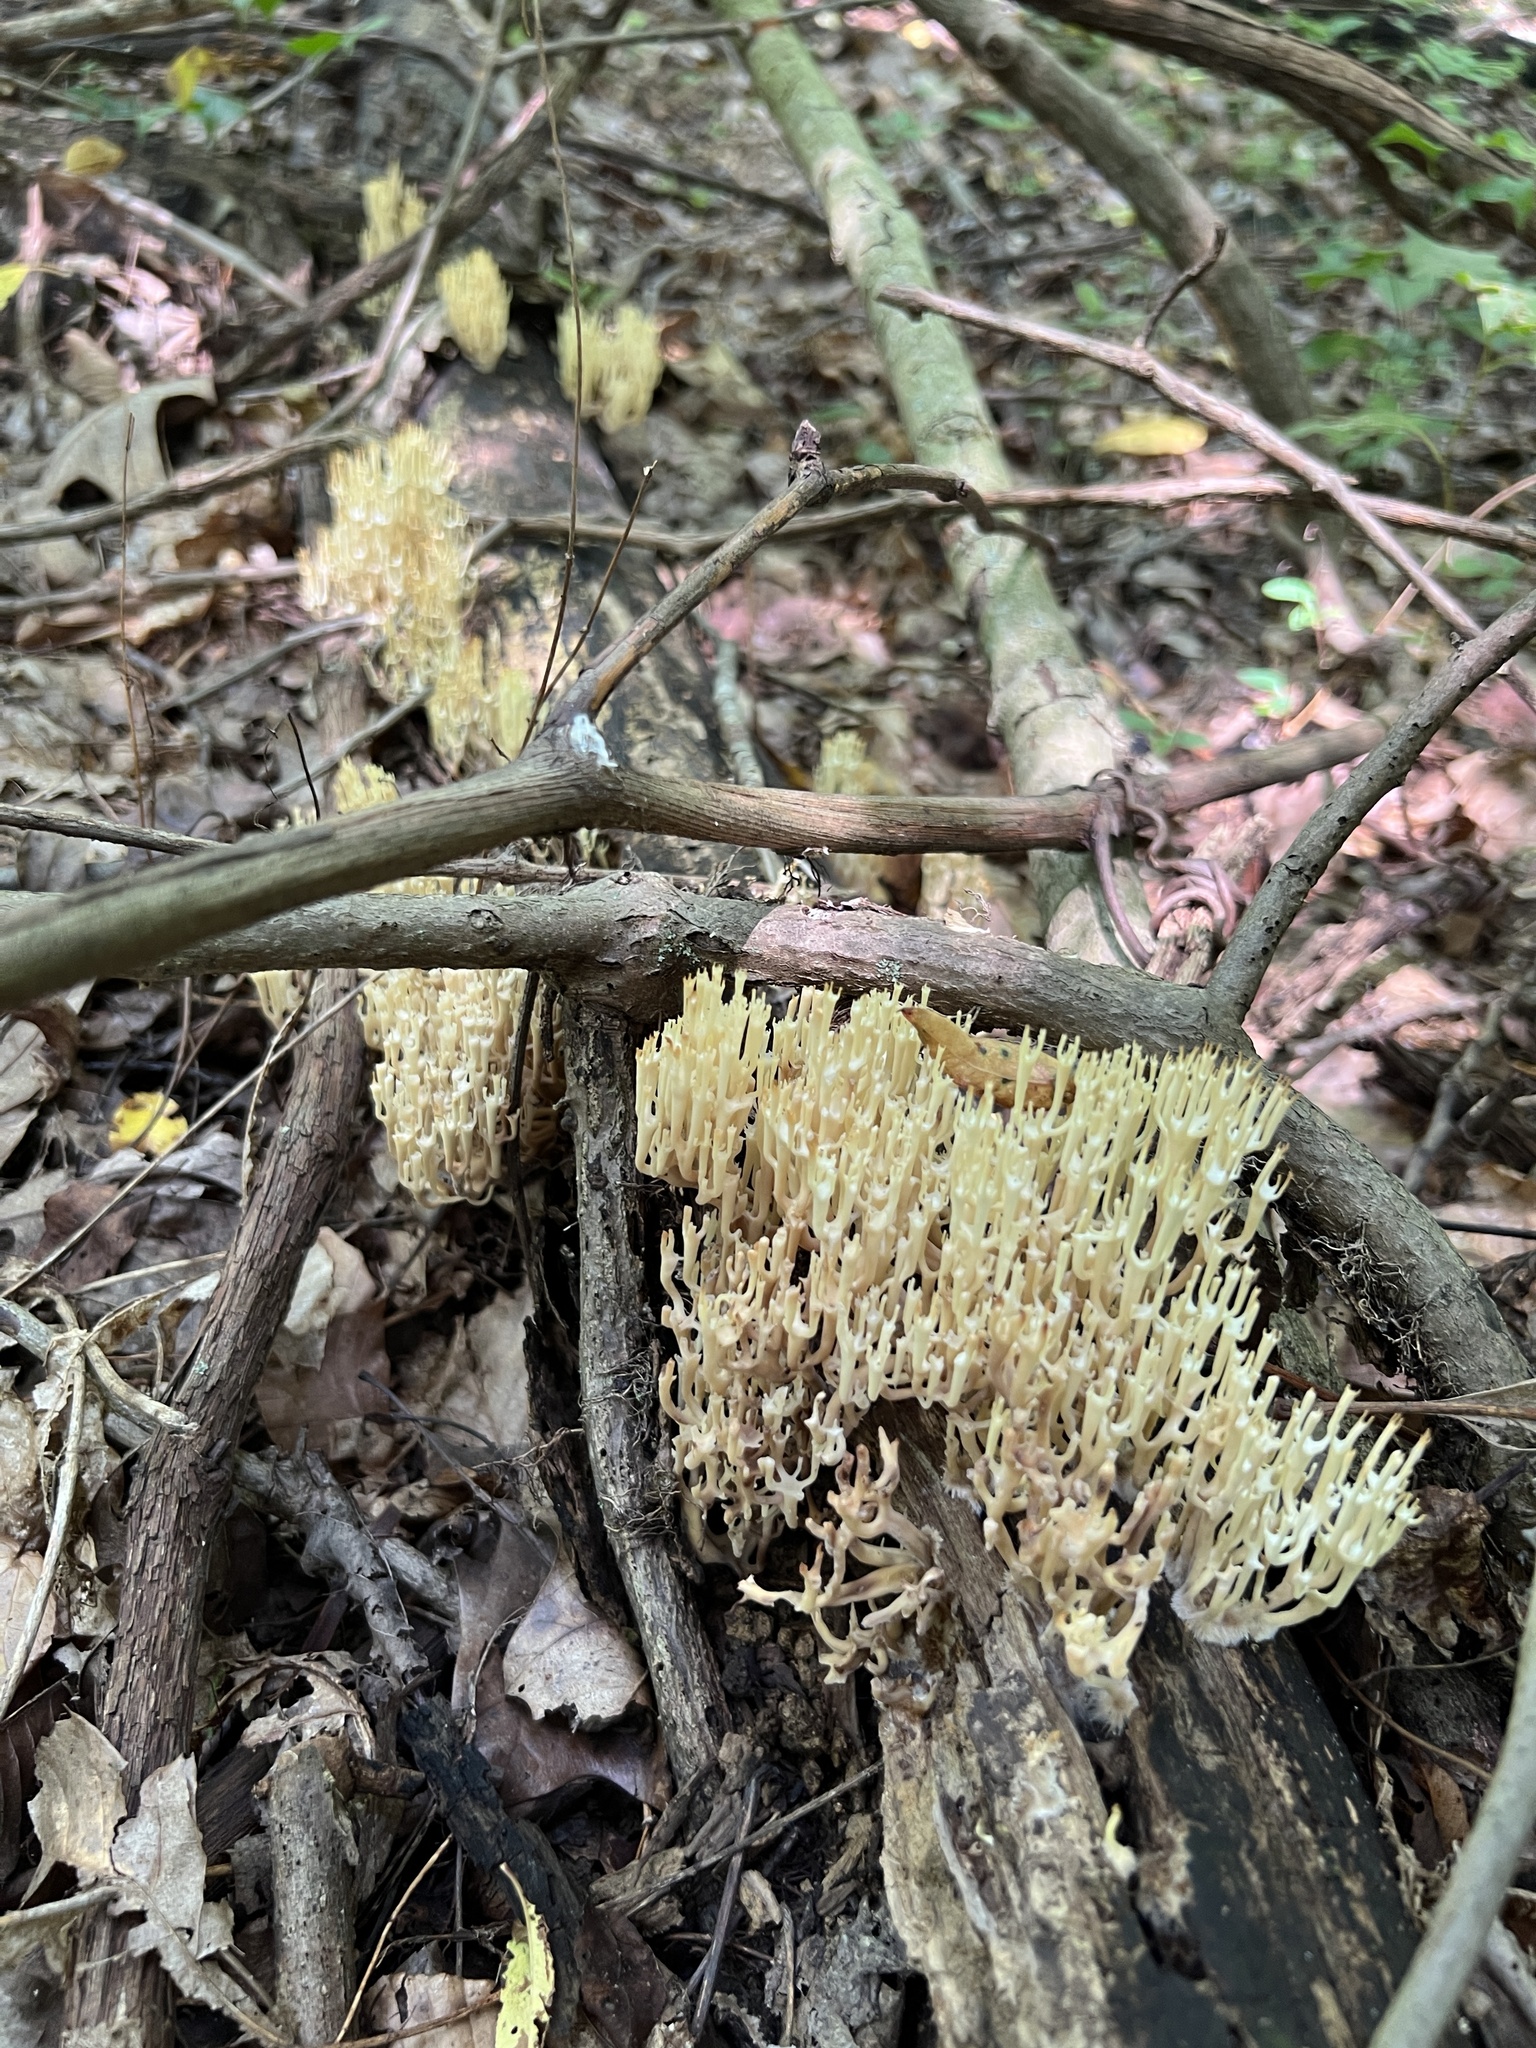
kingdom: Fungi
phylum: Basidiomycota
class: Agaricomycetes
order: Russulales
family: Auriscalpiaceae
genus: Artomyces
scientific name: Artomyces pyxidatus
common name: Crown-tipped coral fungus
